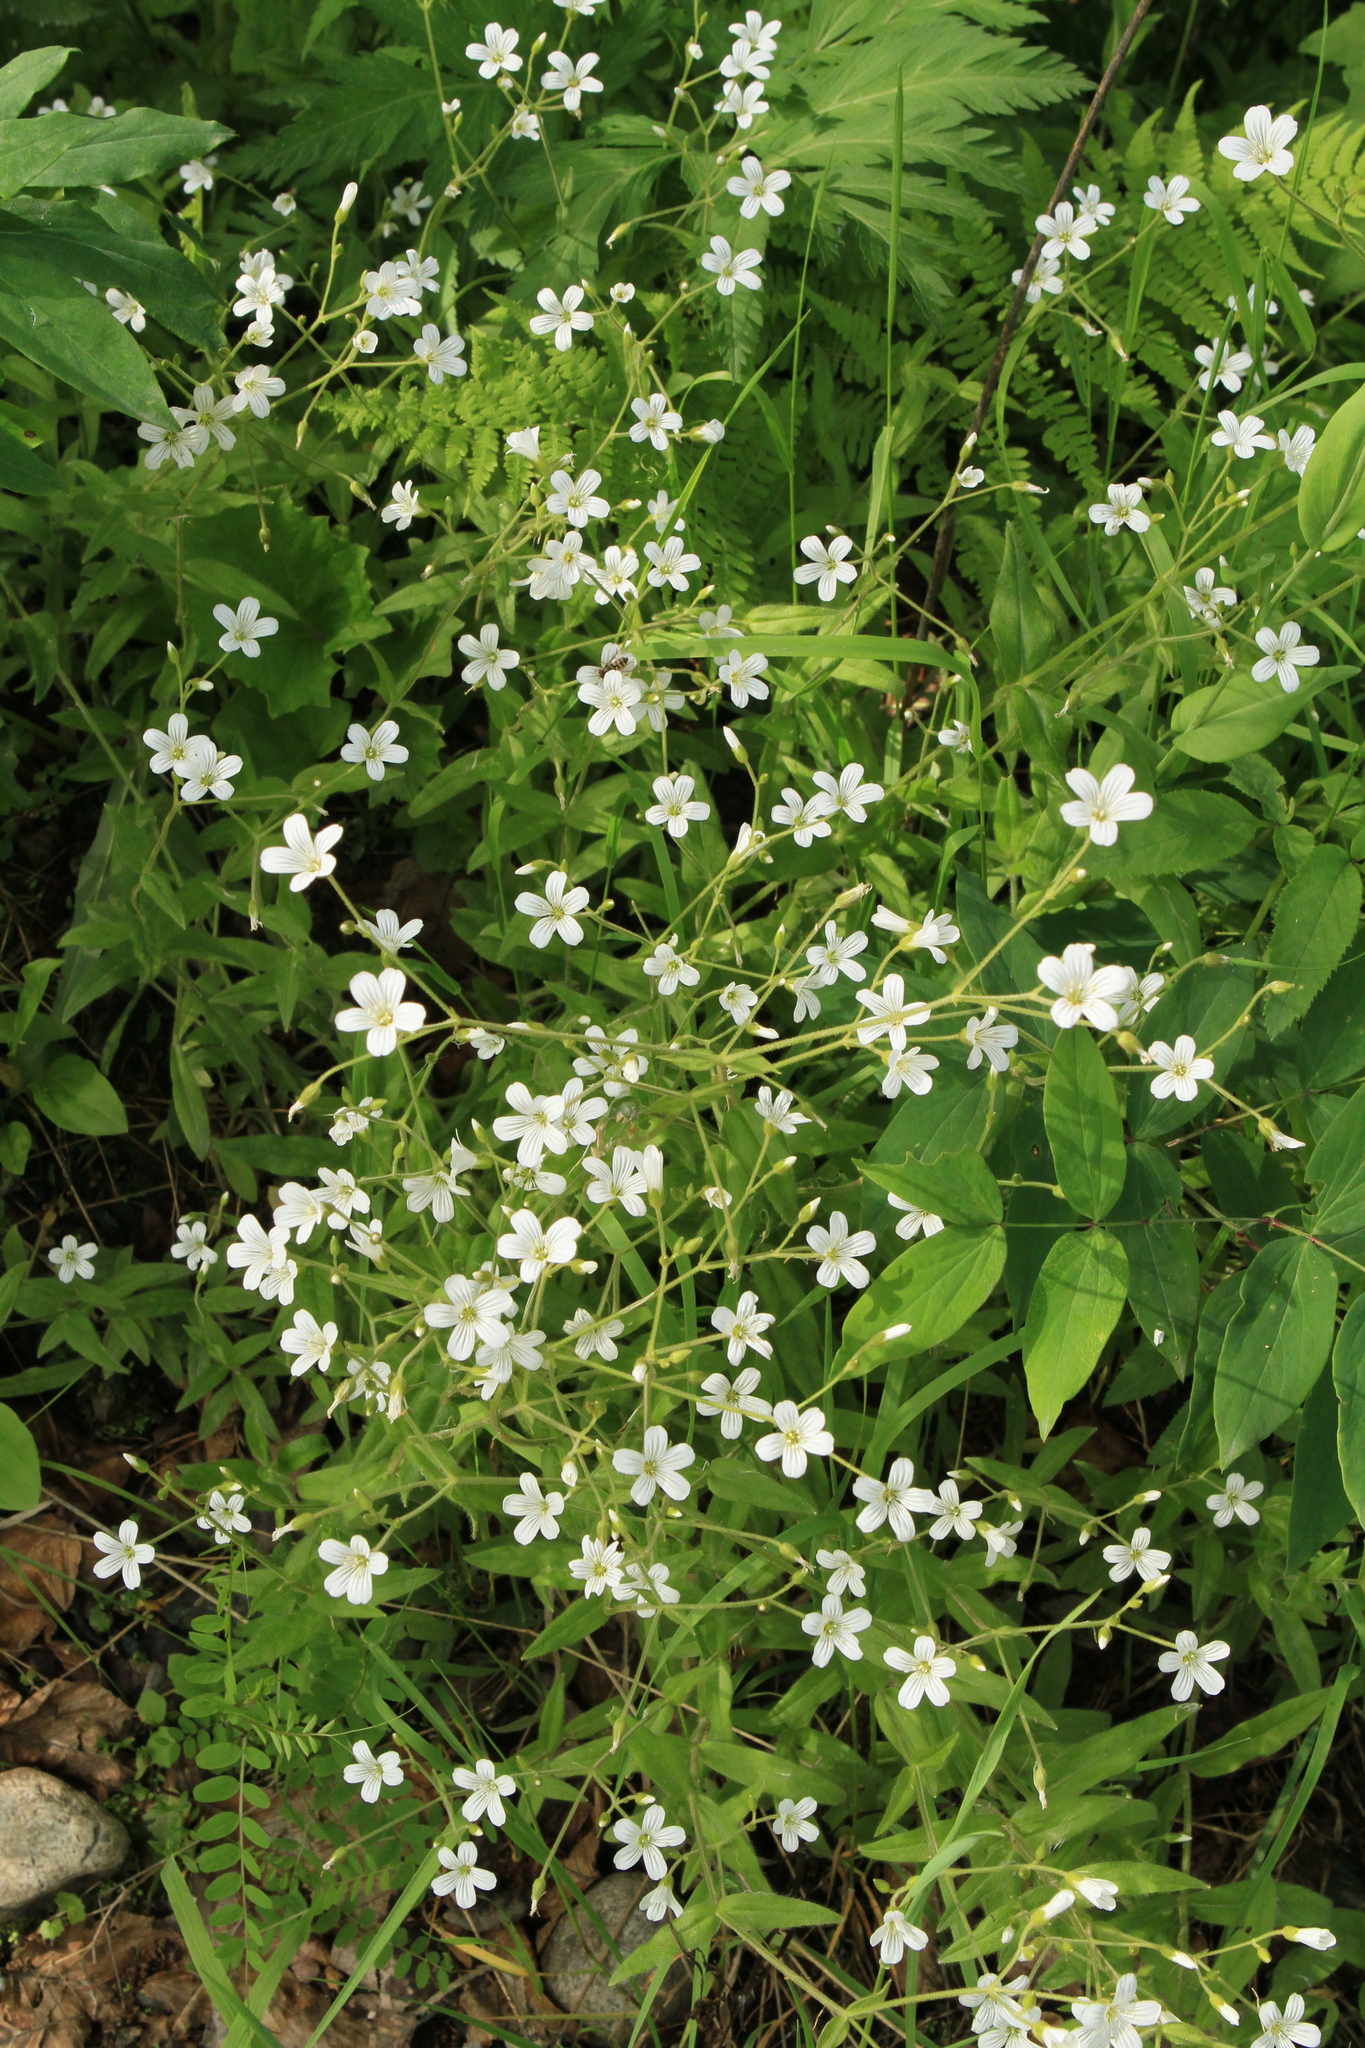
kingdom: Plantae
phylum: Tracheophyta
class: Magnoliopsida
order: Caryophyllales
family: Caryophyllaceae
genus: Stellaria
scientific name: Stellaria graminea
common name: Grass-like starwort
